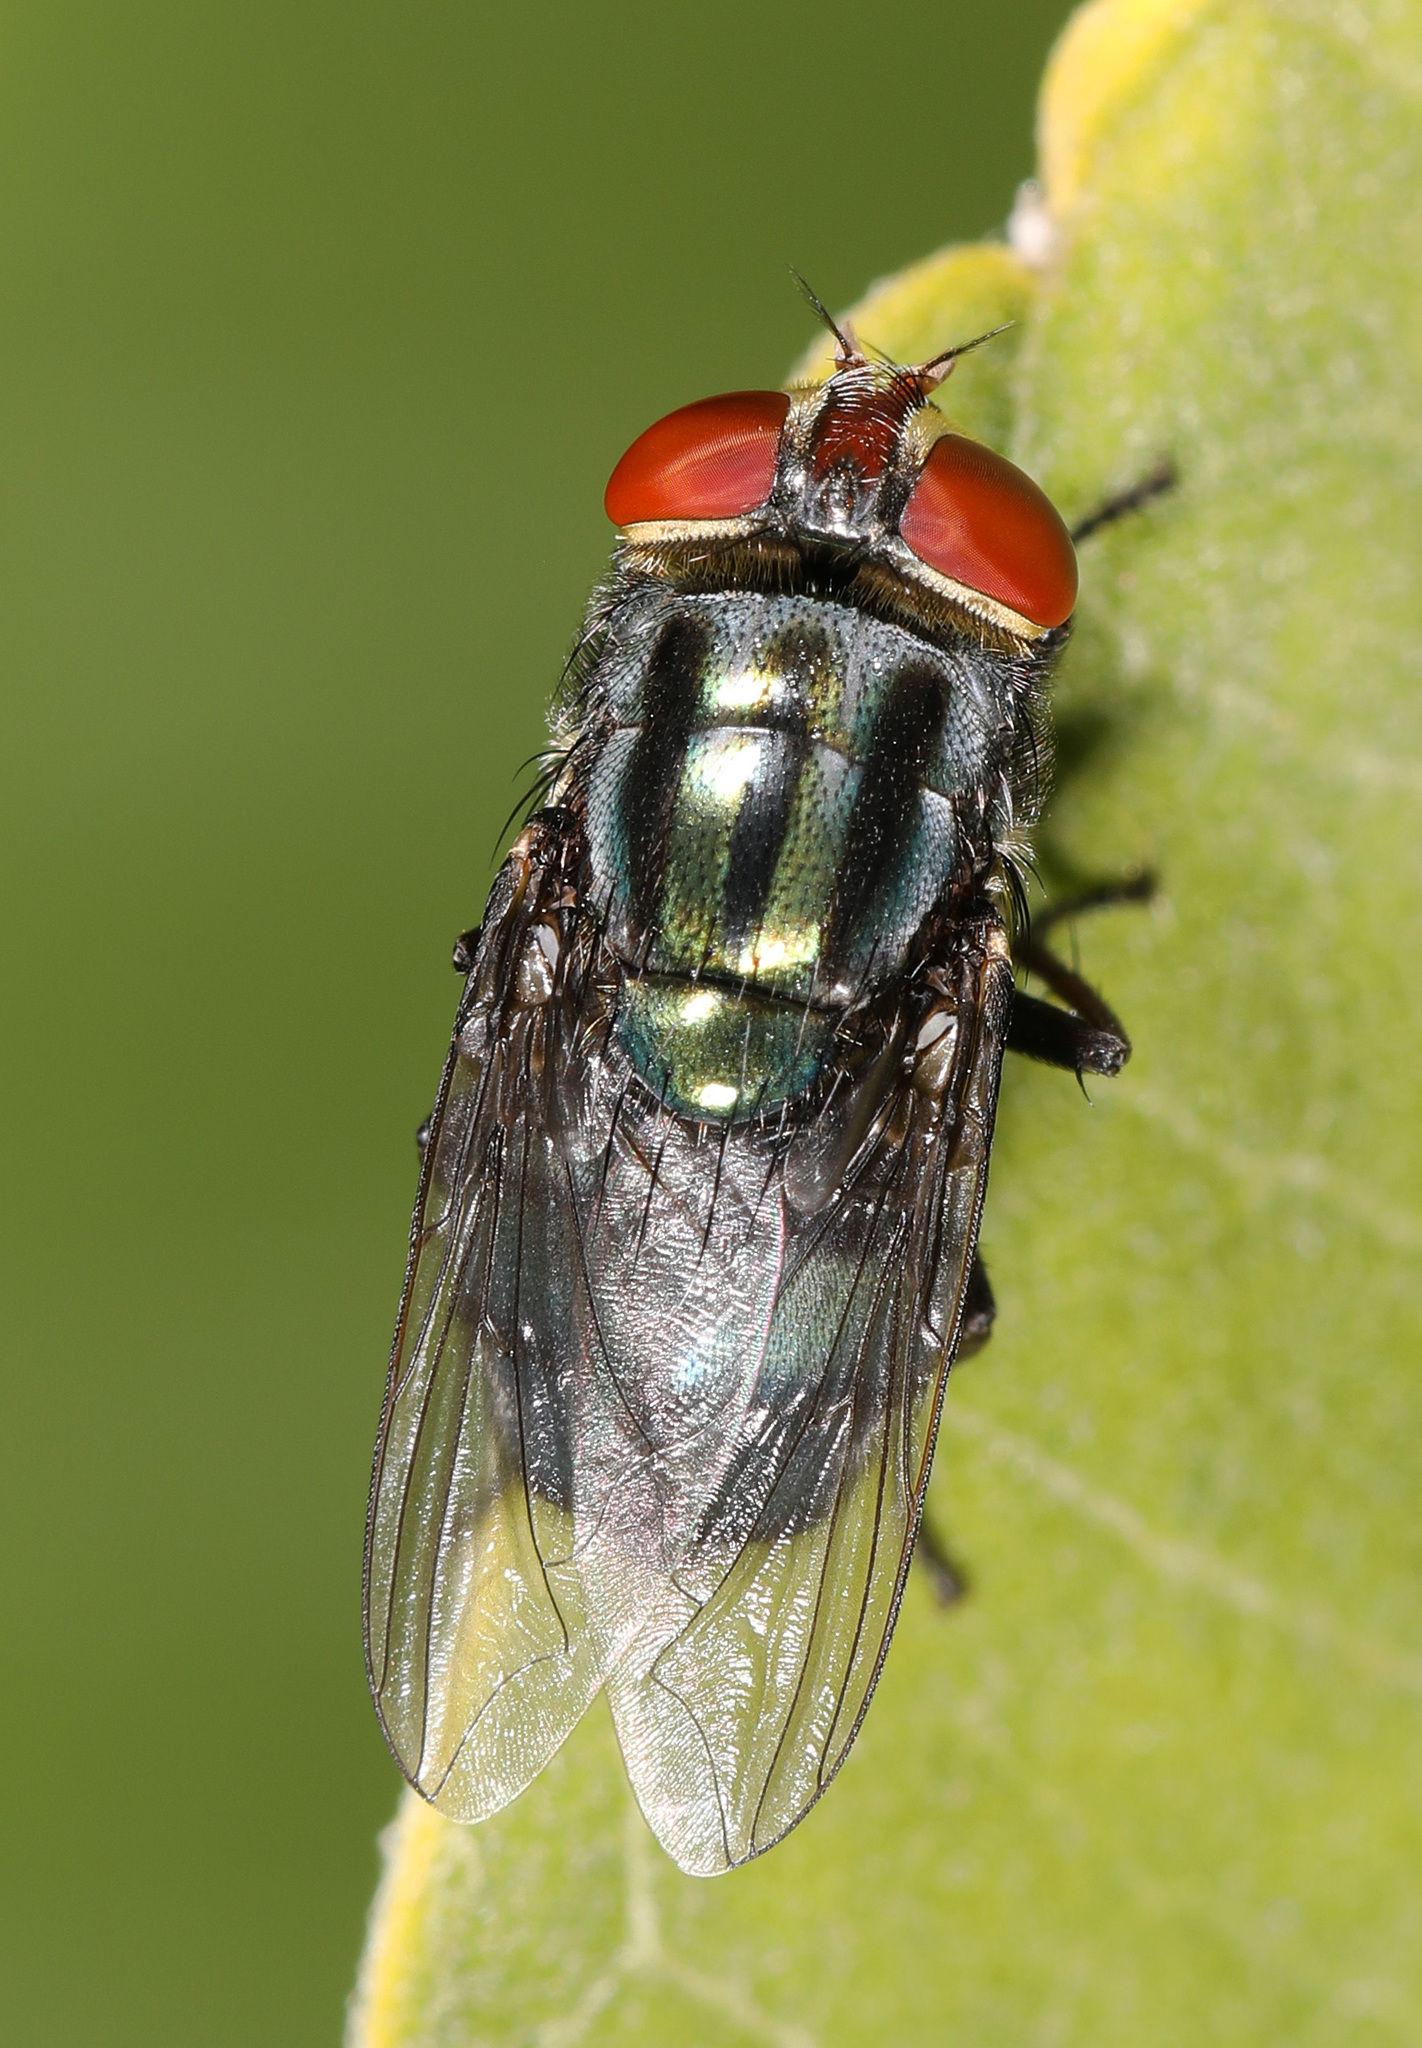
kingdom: Animalia
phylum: Arthropoda
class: Insecta
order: Diptera
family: Calliphoridae
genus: Cochliomyia
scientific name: Cochliomyia macellaria
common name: Secondary screwworm
